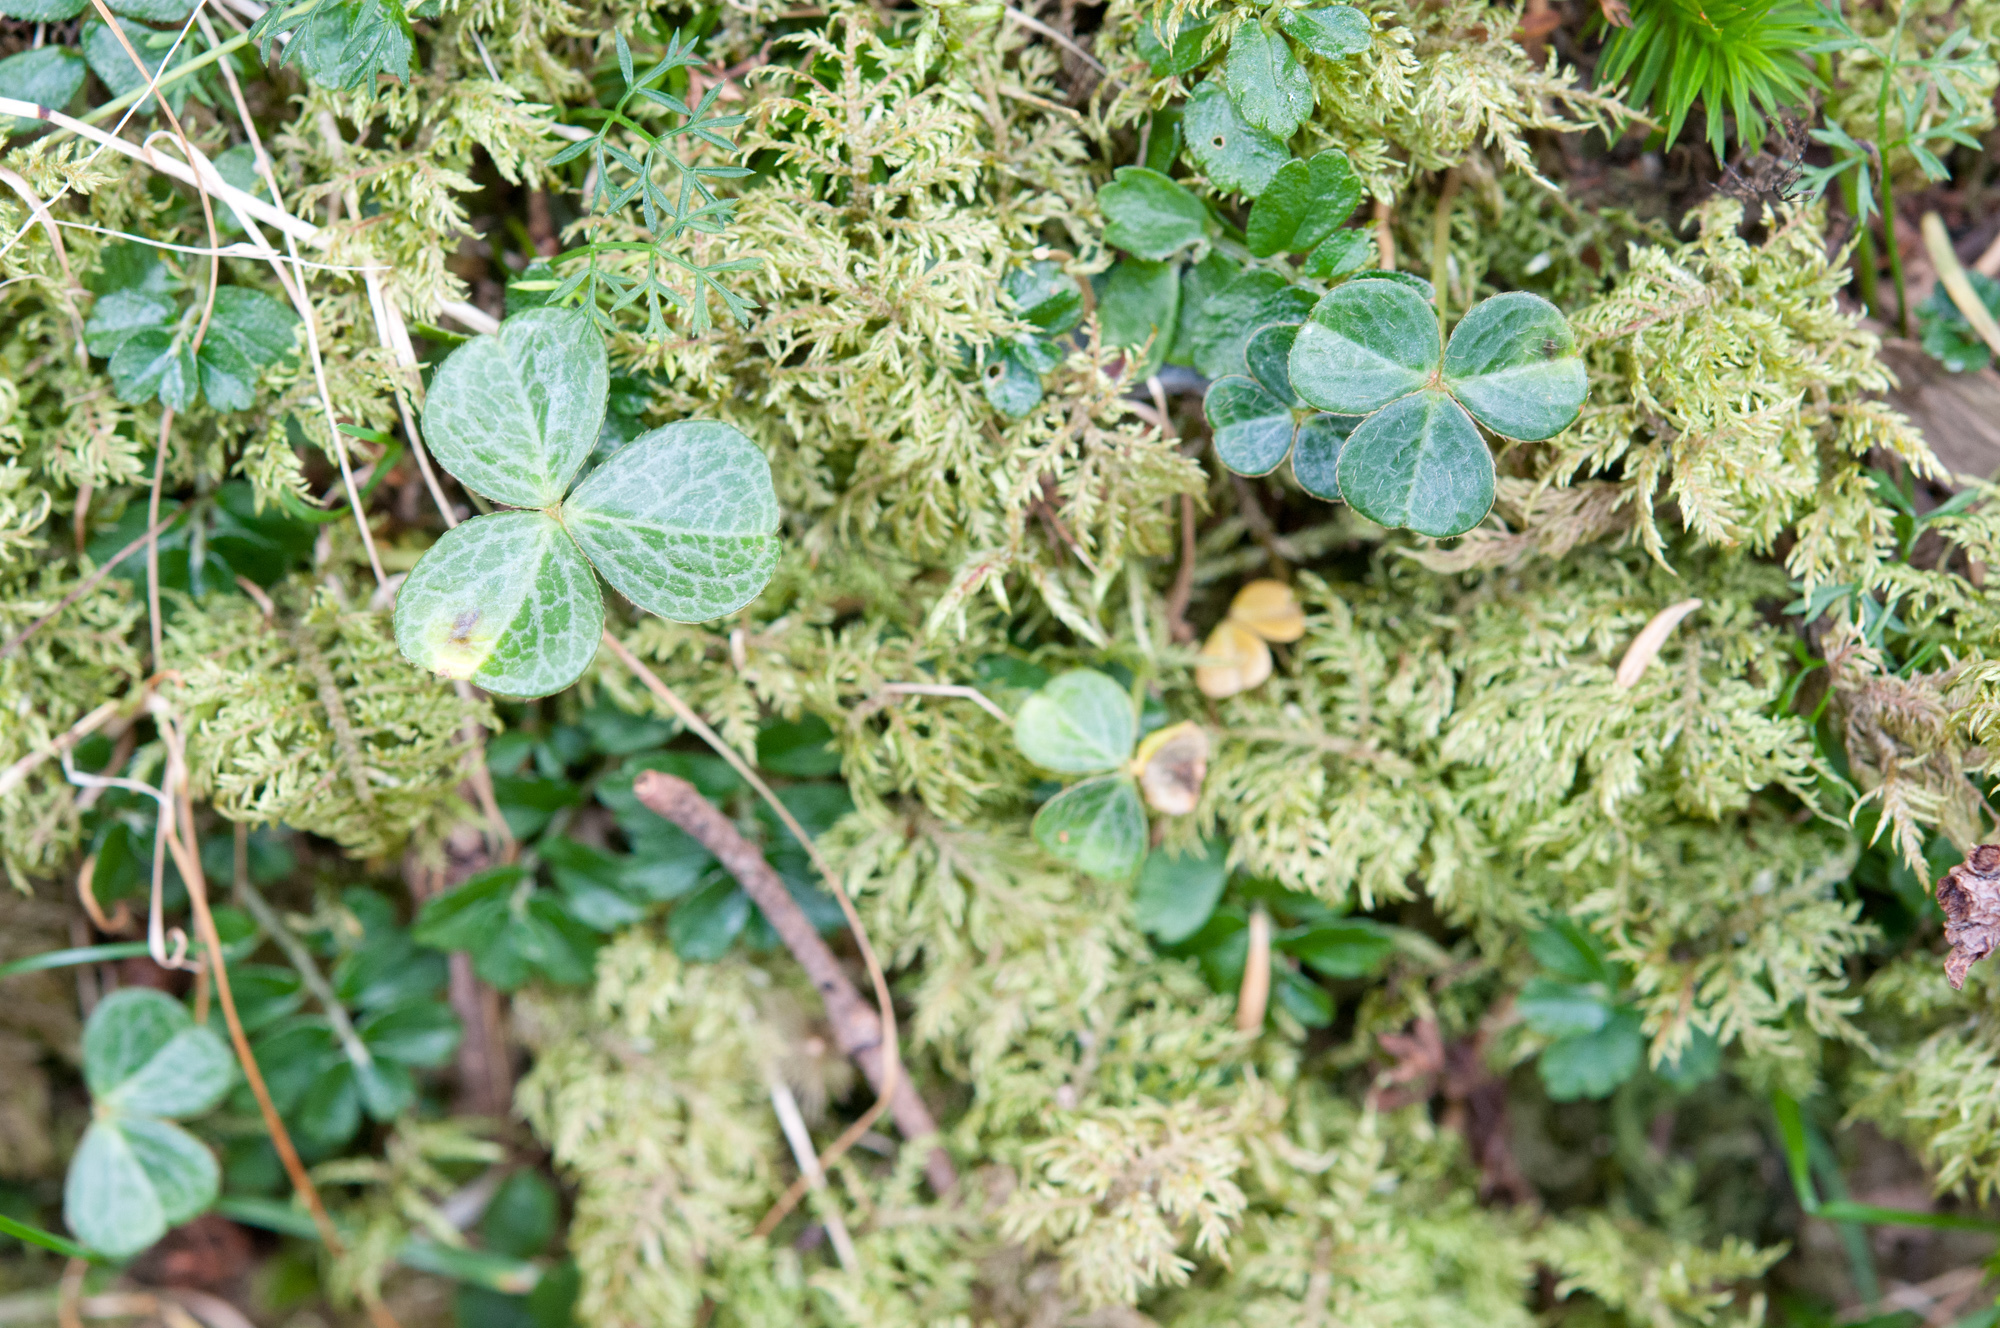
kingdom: Plantae
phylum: Tracheophyta
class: Magnoliopsida
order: Oxalidales
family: Oxalidaceae
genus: Oxalis
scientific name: Oxalis griffithii
